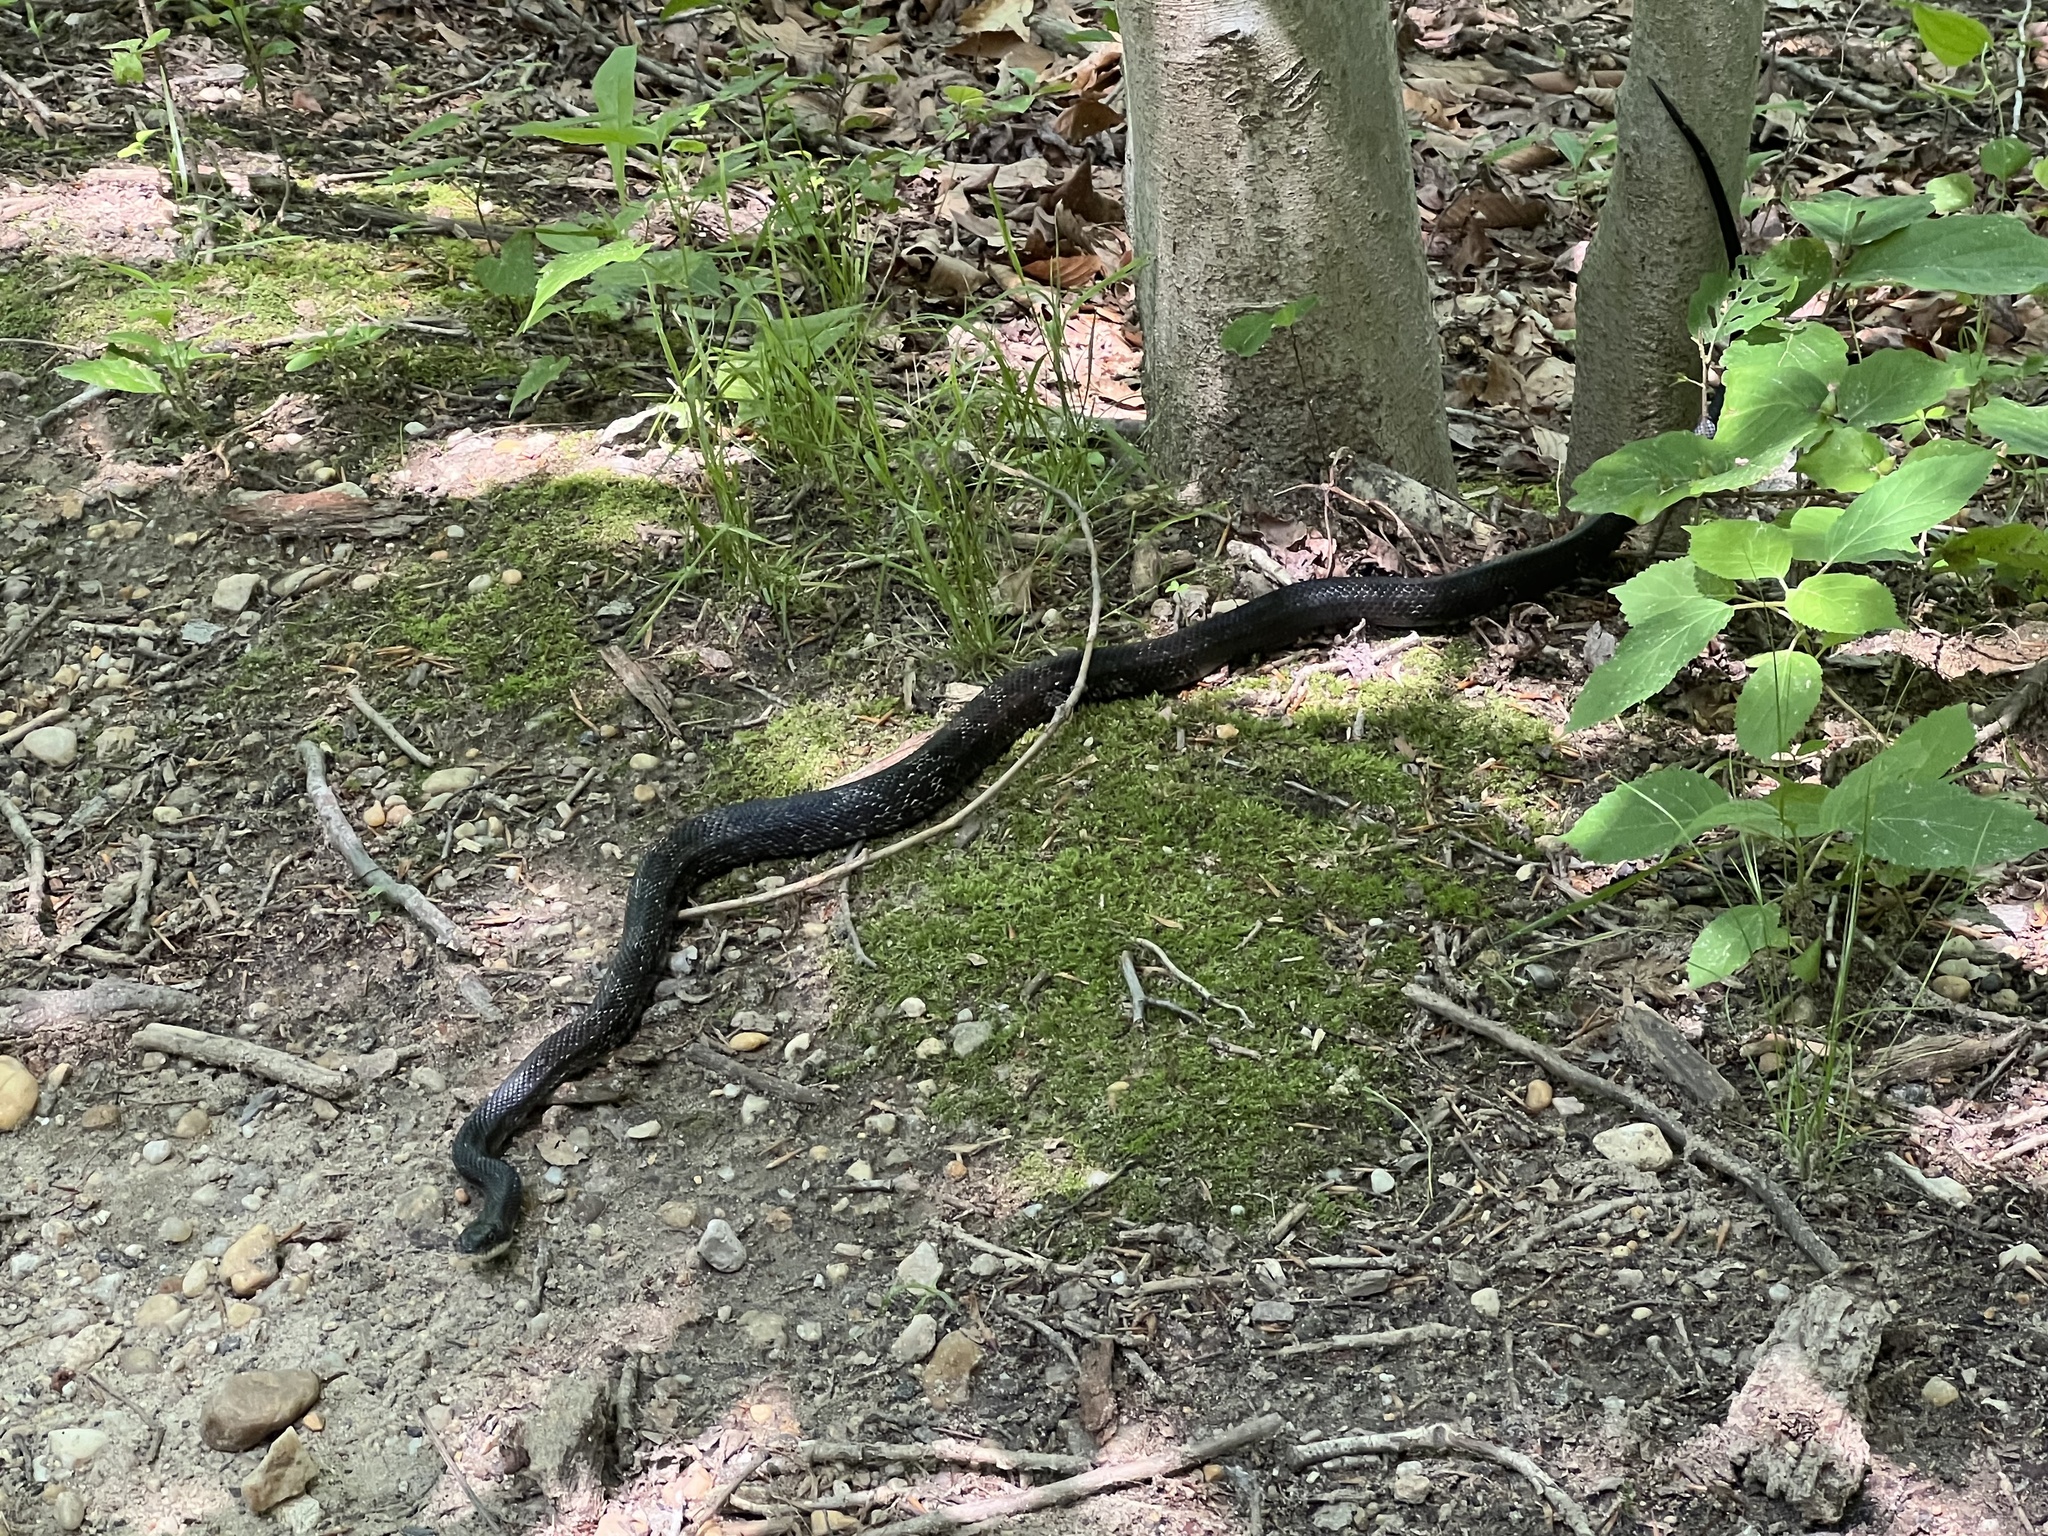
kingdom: Animalia
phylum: Chordata
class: Squamata
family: Colubridae
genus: Pantherophis
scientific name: Pantherophis alleghaniensis
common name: Eastern rat snake
